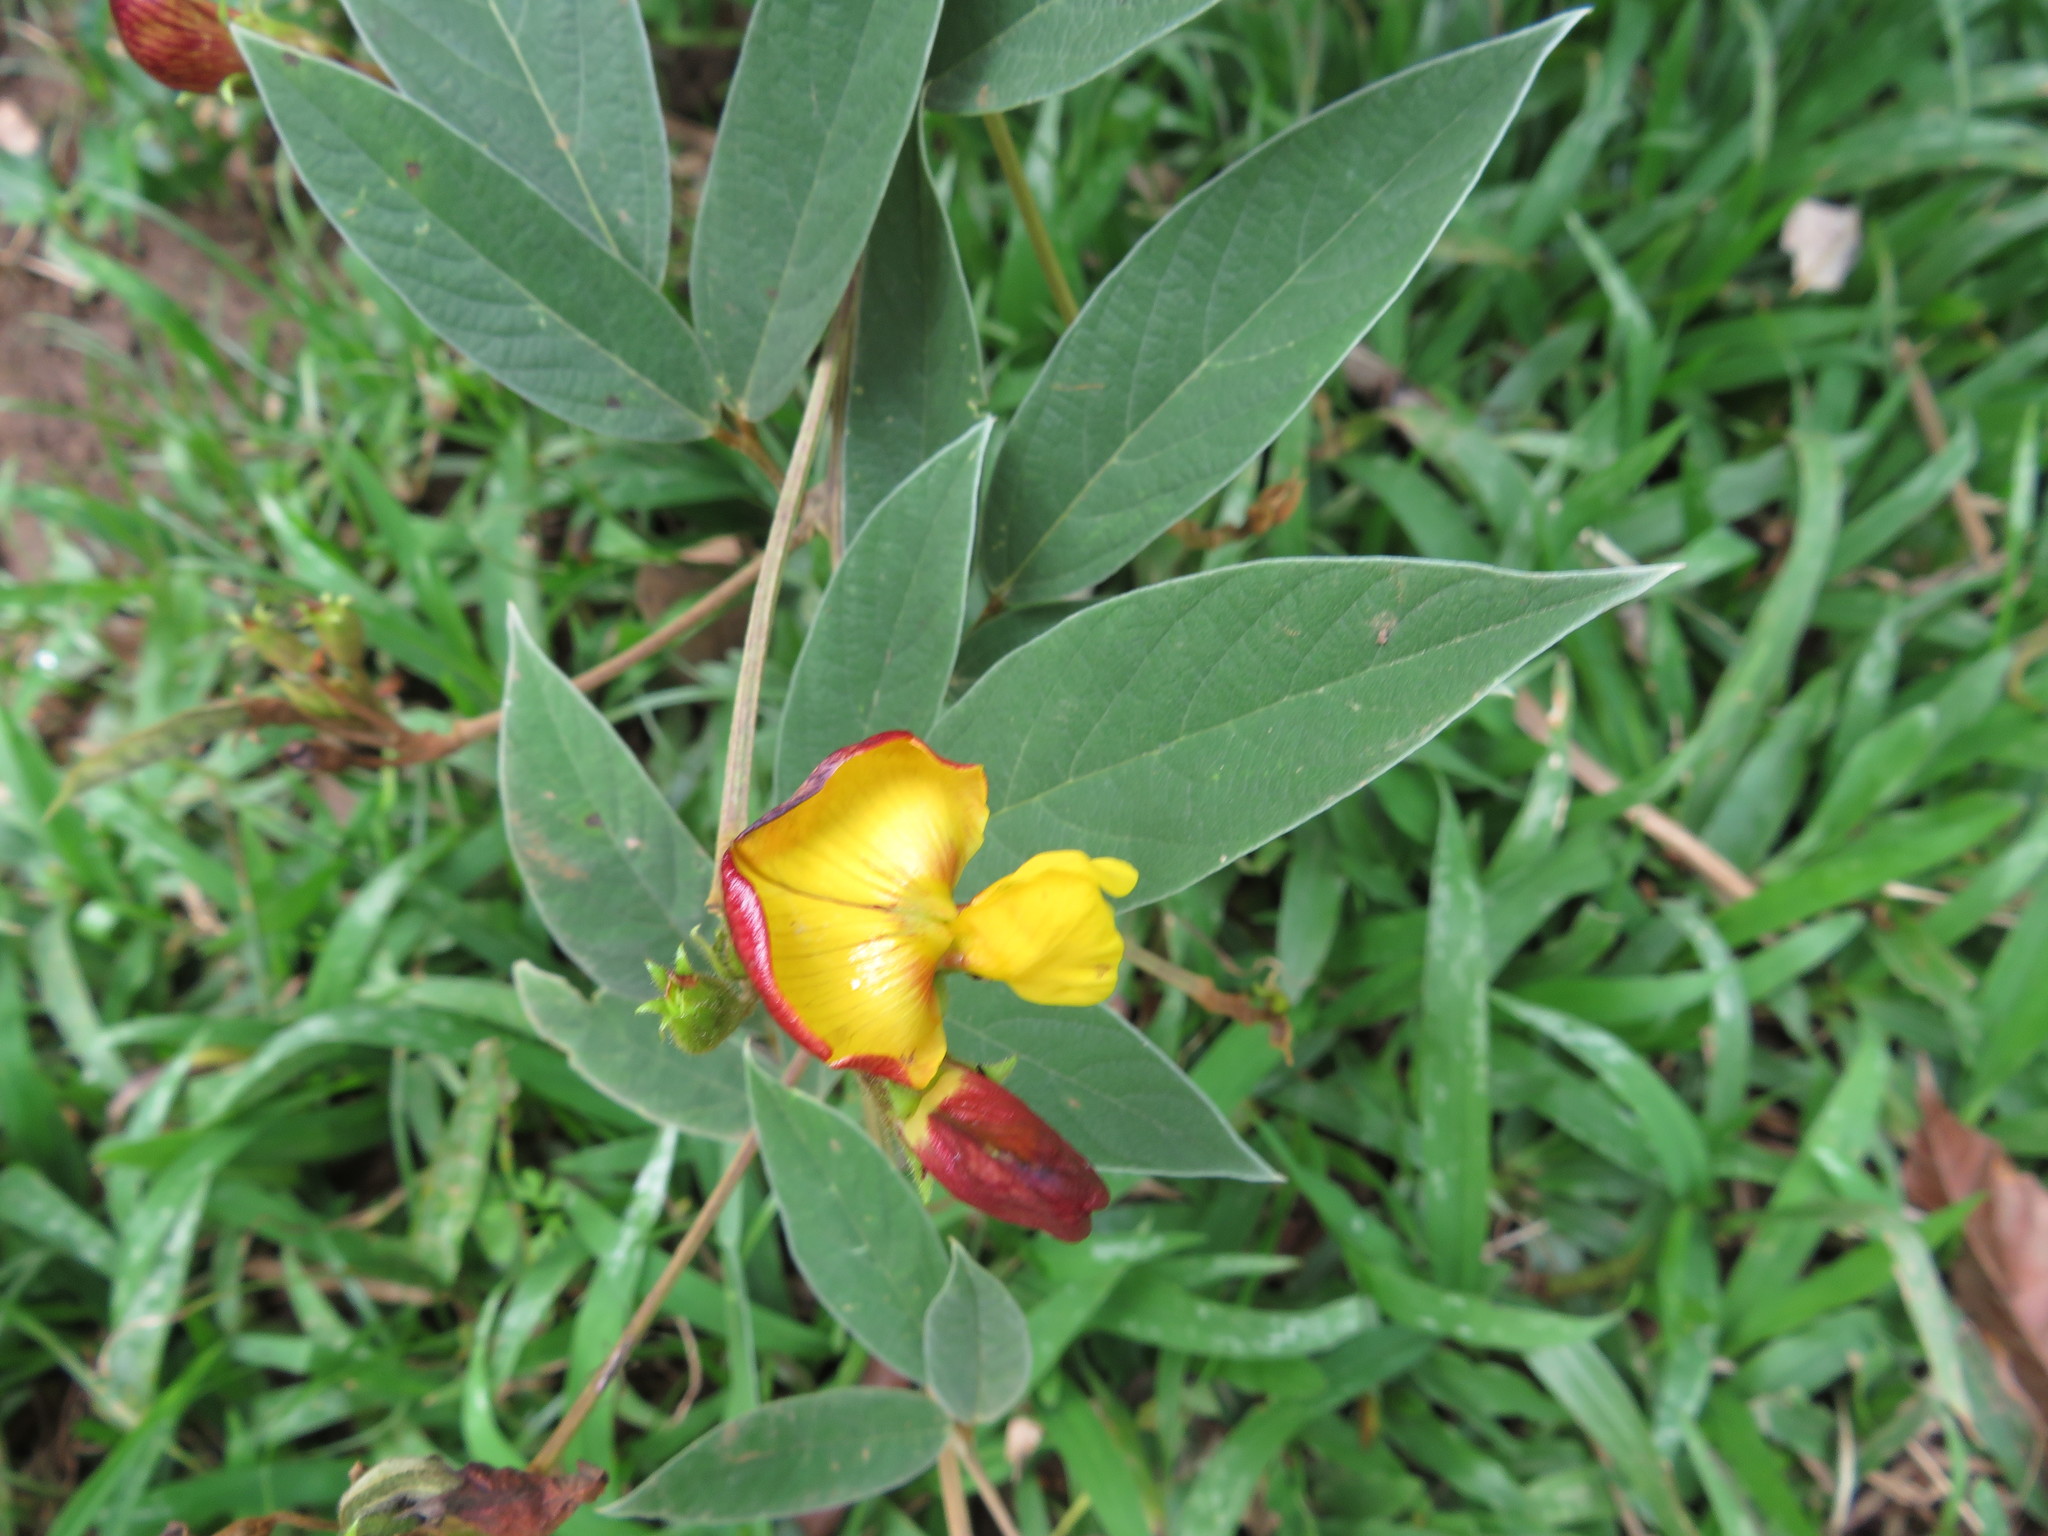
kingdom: Plantae
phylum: Tracheophyta
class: Magnoliopsida
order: Fabales
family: Fabaceae
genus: Cajanus
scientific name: Cajanus cajan
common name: Pigeonpea
